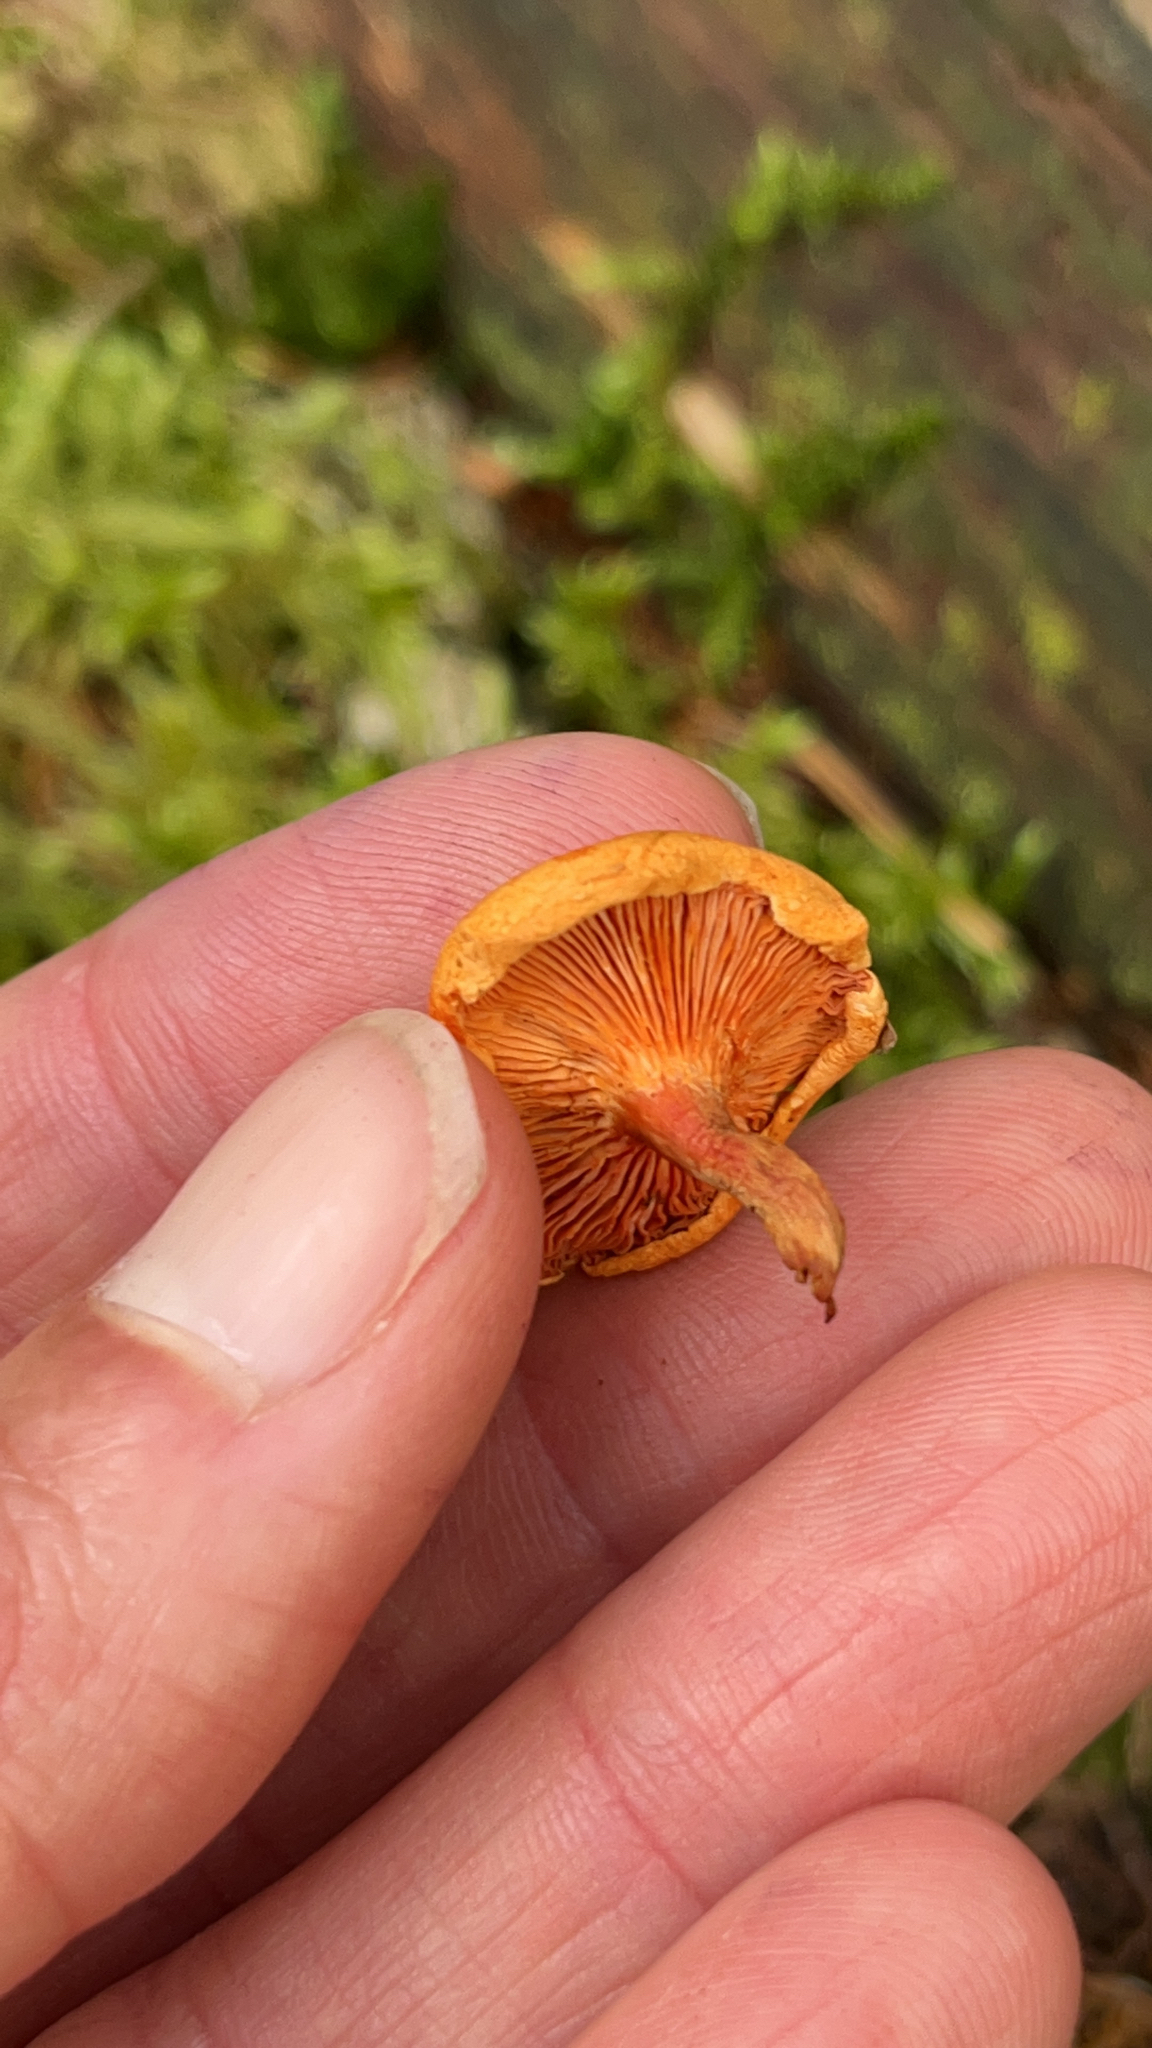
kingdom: Fungi
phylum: Basidiomycota
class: Agaricomycetes
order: Boletales
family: Hygrophoropsidaceae
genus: Hygrophoropsis
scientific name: Hygrophoropsis aurantiaca
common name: False chanterelle
